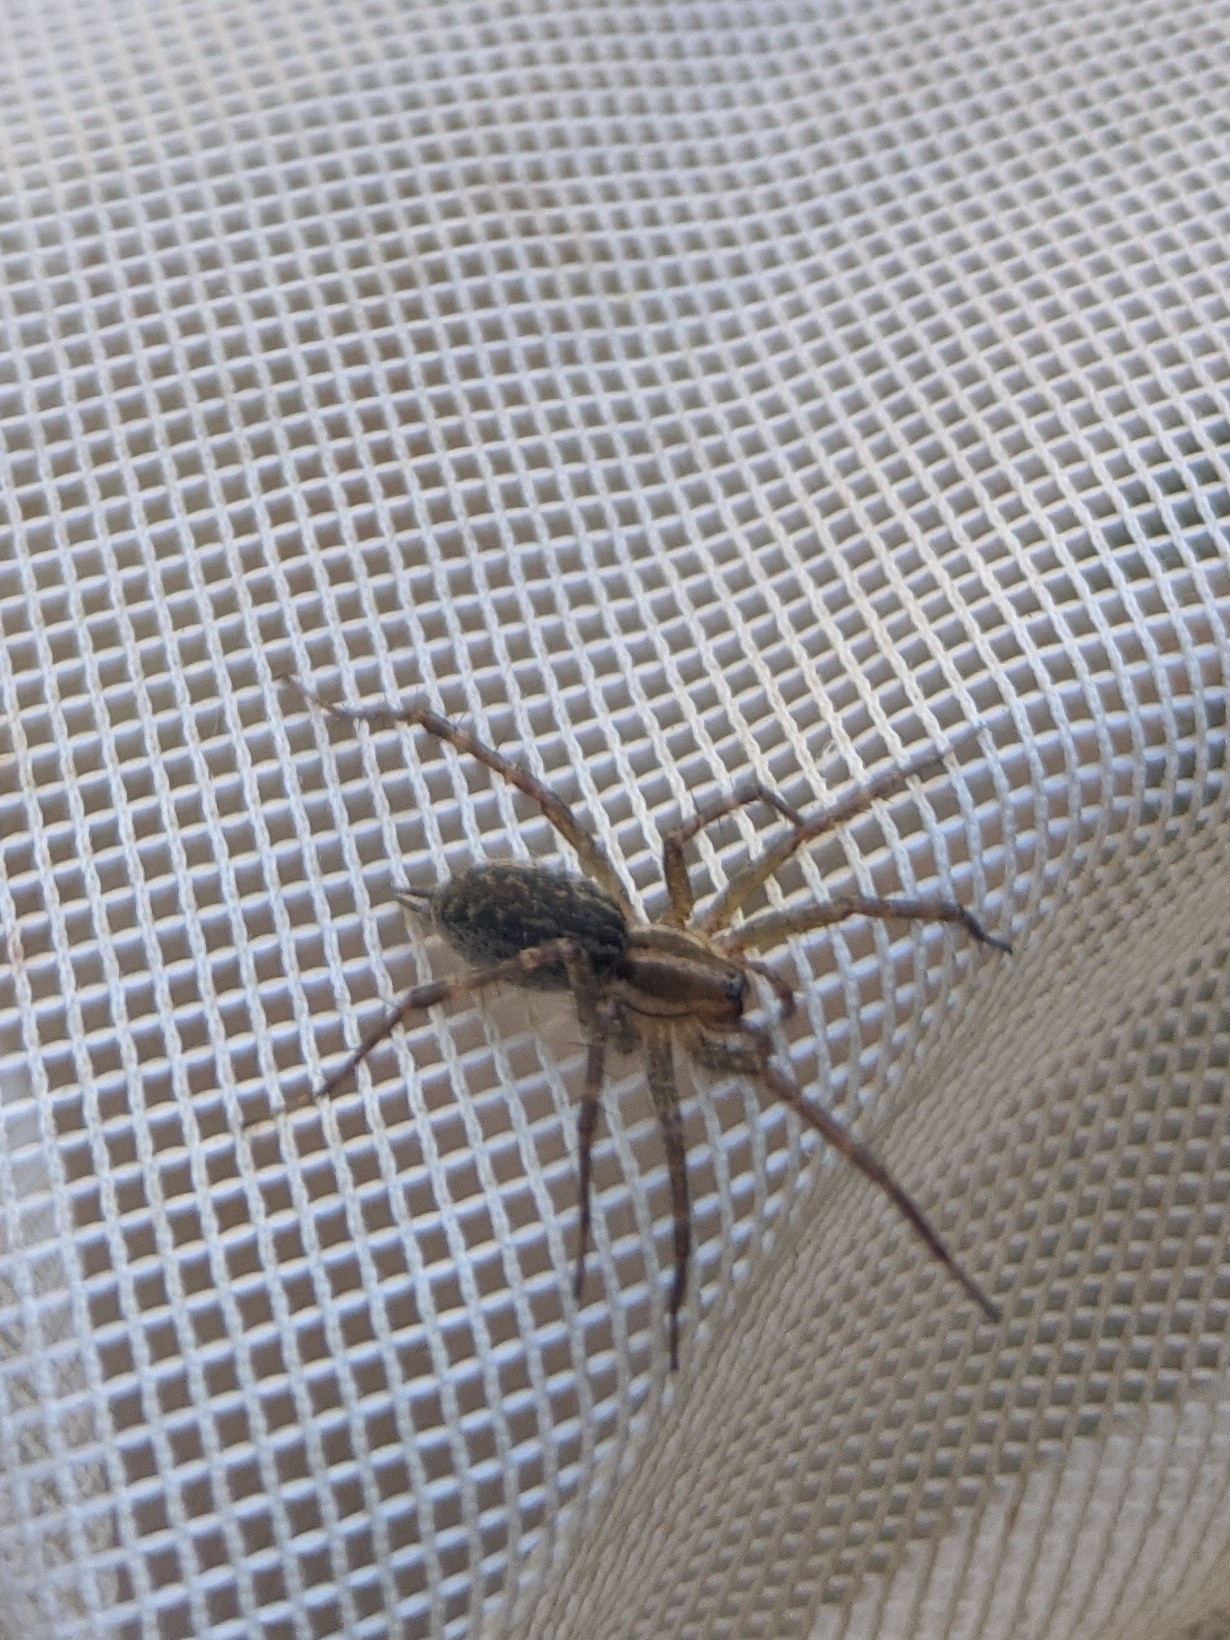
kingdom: Animalia
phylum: Arthropoda
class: Arachnida
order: Araneae
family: Agelenidae
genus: Agelenopsis
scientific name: Agelenopsis
